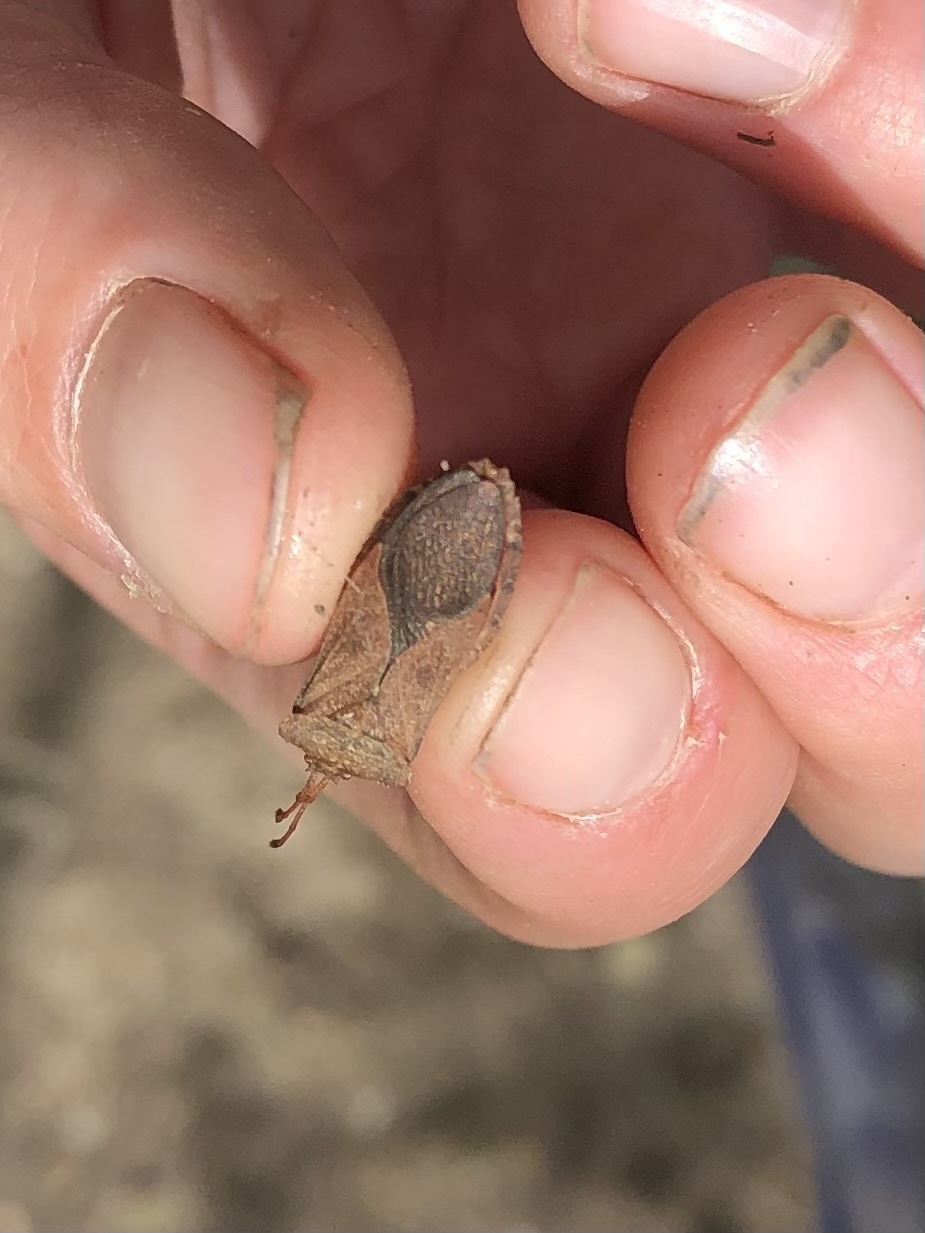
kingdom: Animalia
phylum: Arthropoda
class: Insecta
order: Hemiptera
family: Coreidae
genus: Euthochtha
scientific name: Euthochtha galeator
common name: Helmeted squash bug
